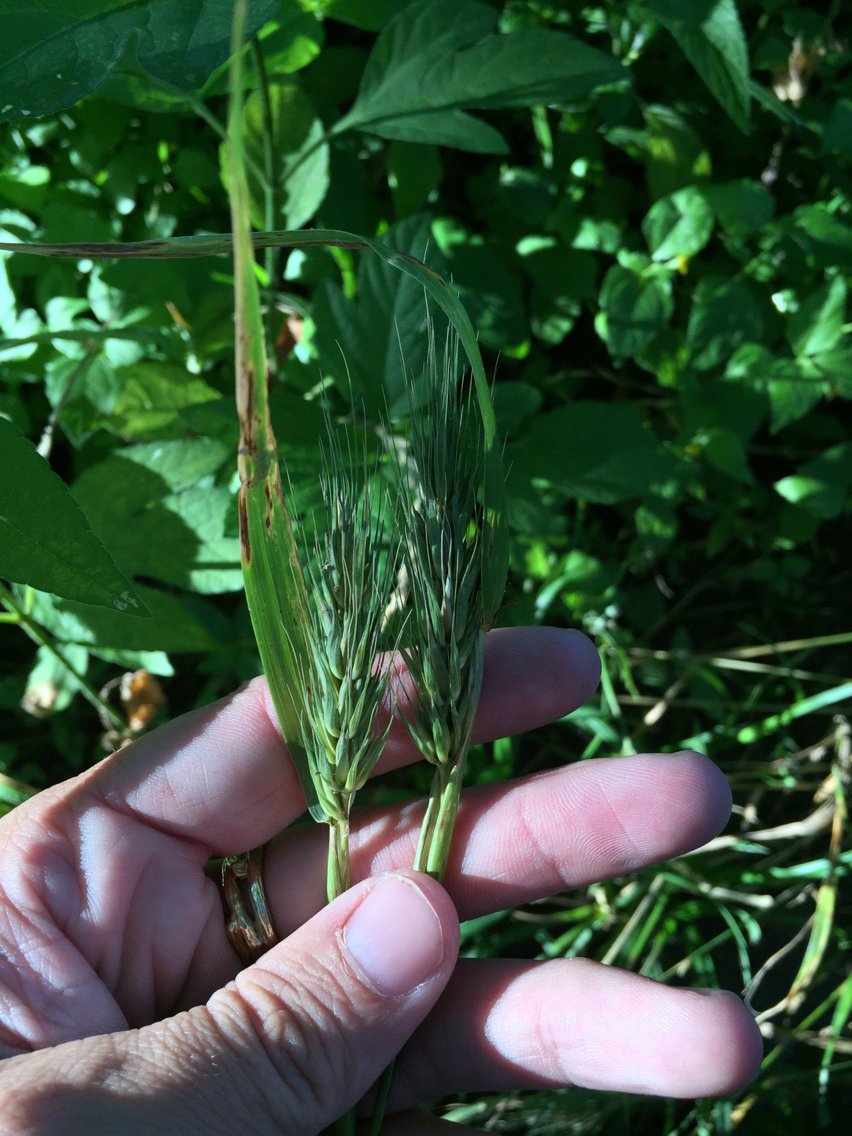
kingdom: Plantae
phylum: Tracheophyta
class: Liliopsida
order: Poales
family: Poaceae
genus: Elymus
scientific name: Elymus virginicus
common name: Common eastern wildrye
